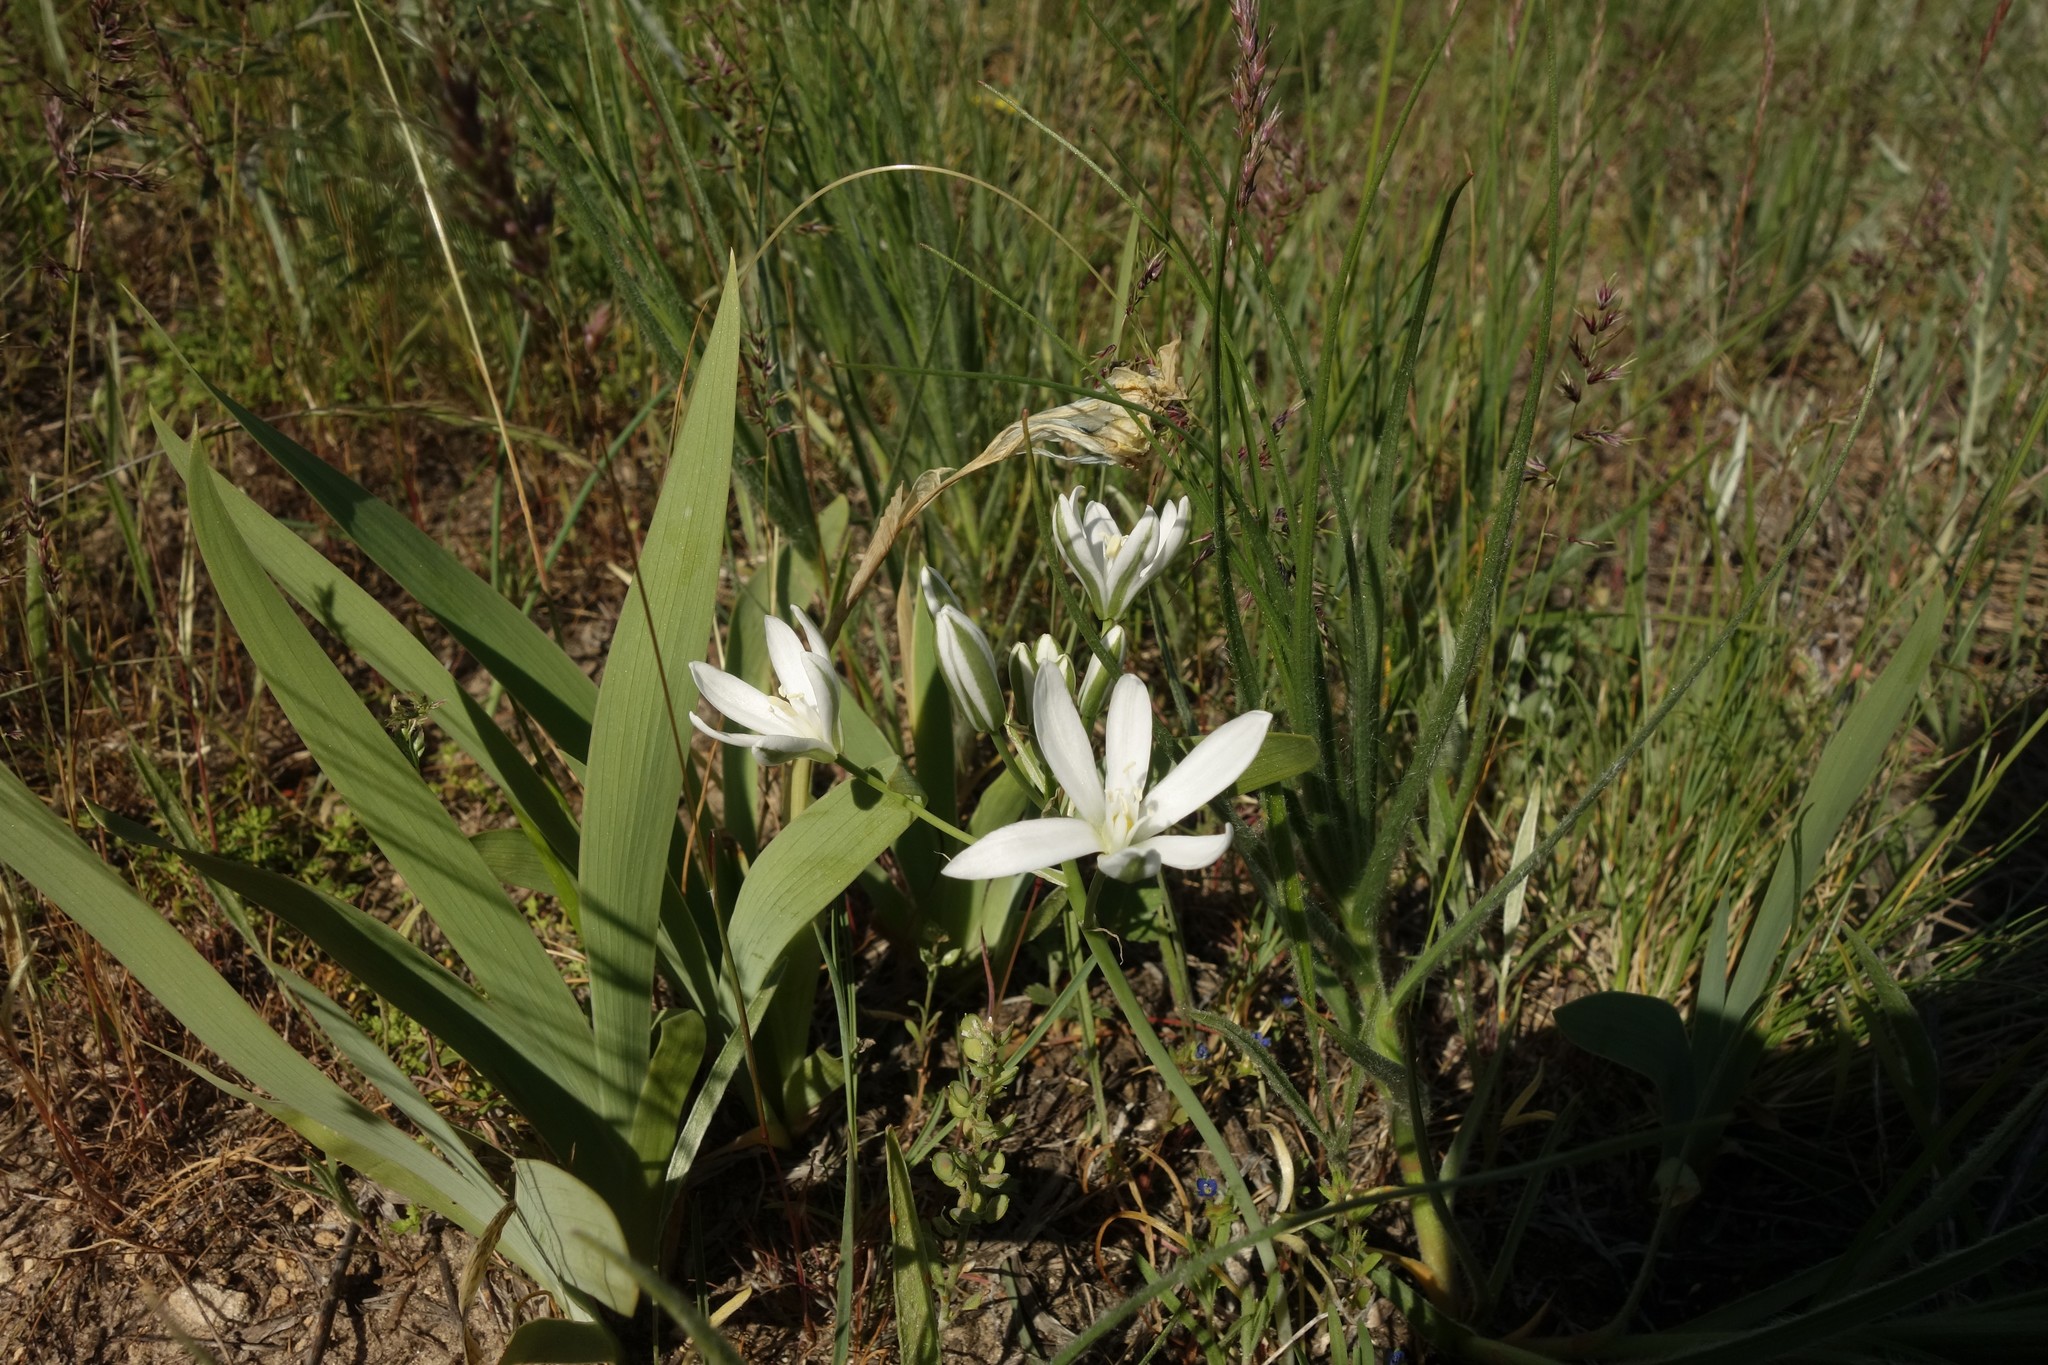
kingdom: Plantae
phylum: Tracheophyta
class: Liliopsida
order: Asparagales
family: Asparagaceae
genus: Ornithogalum
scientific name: Ornithogalum orthophyllum
